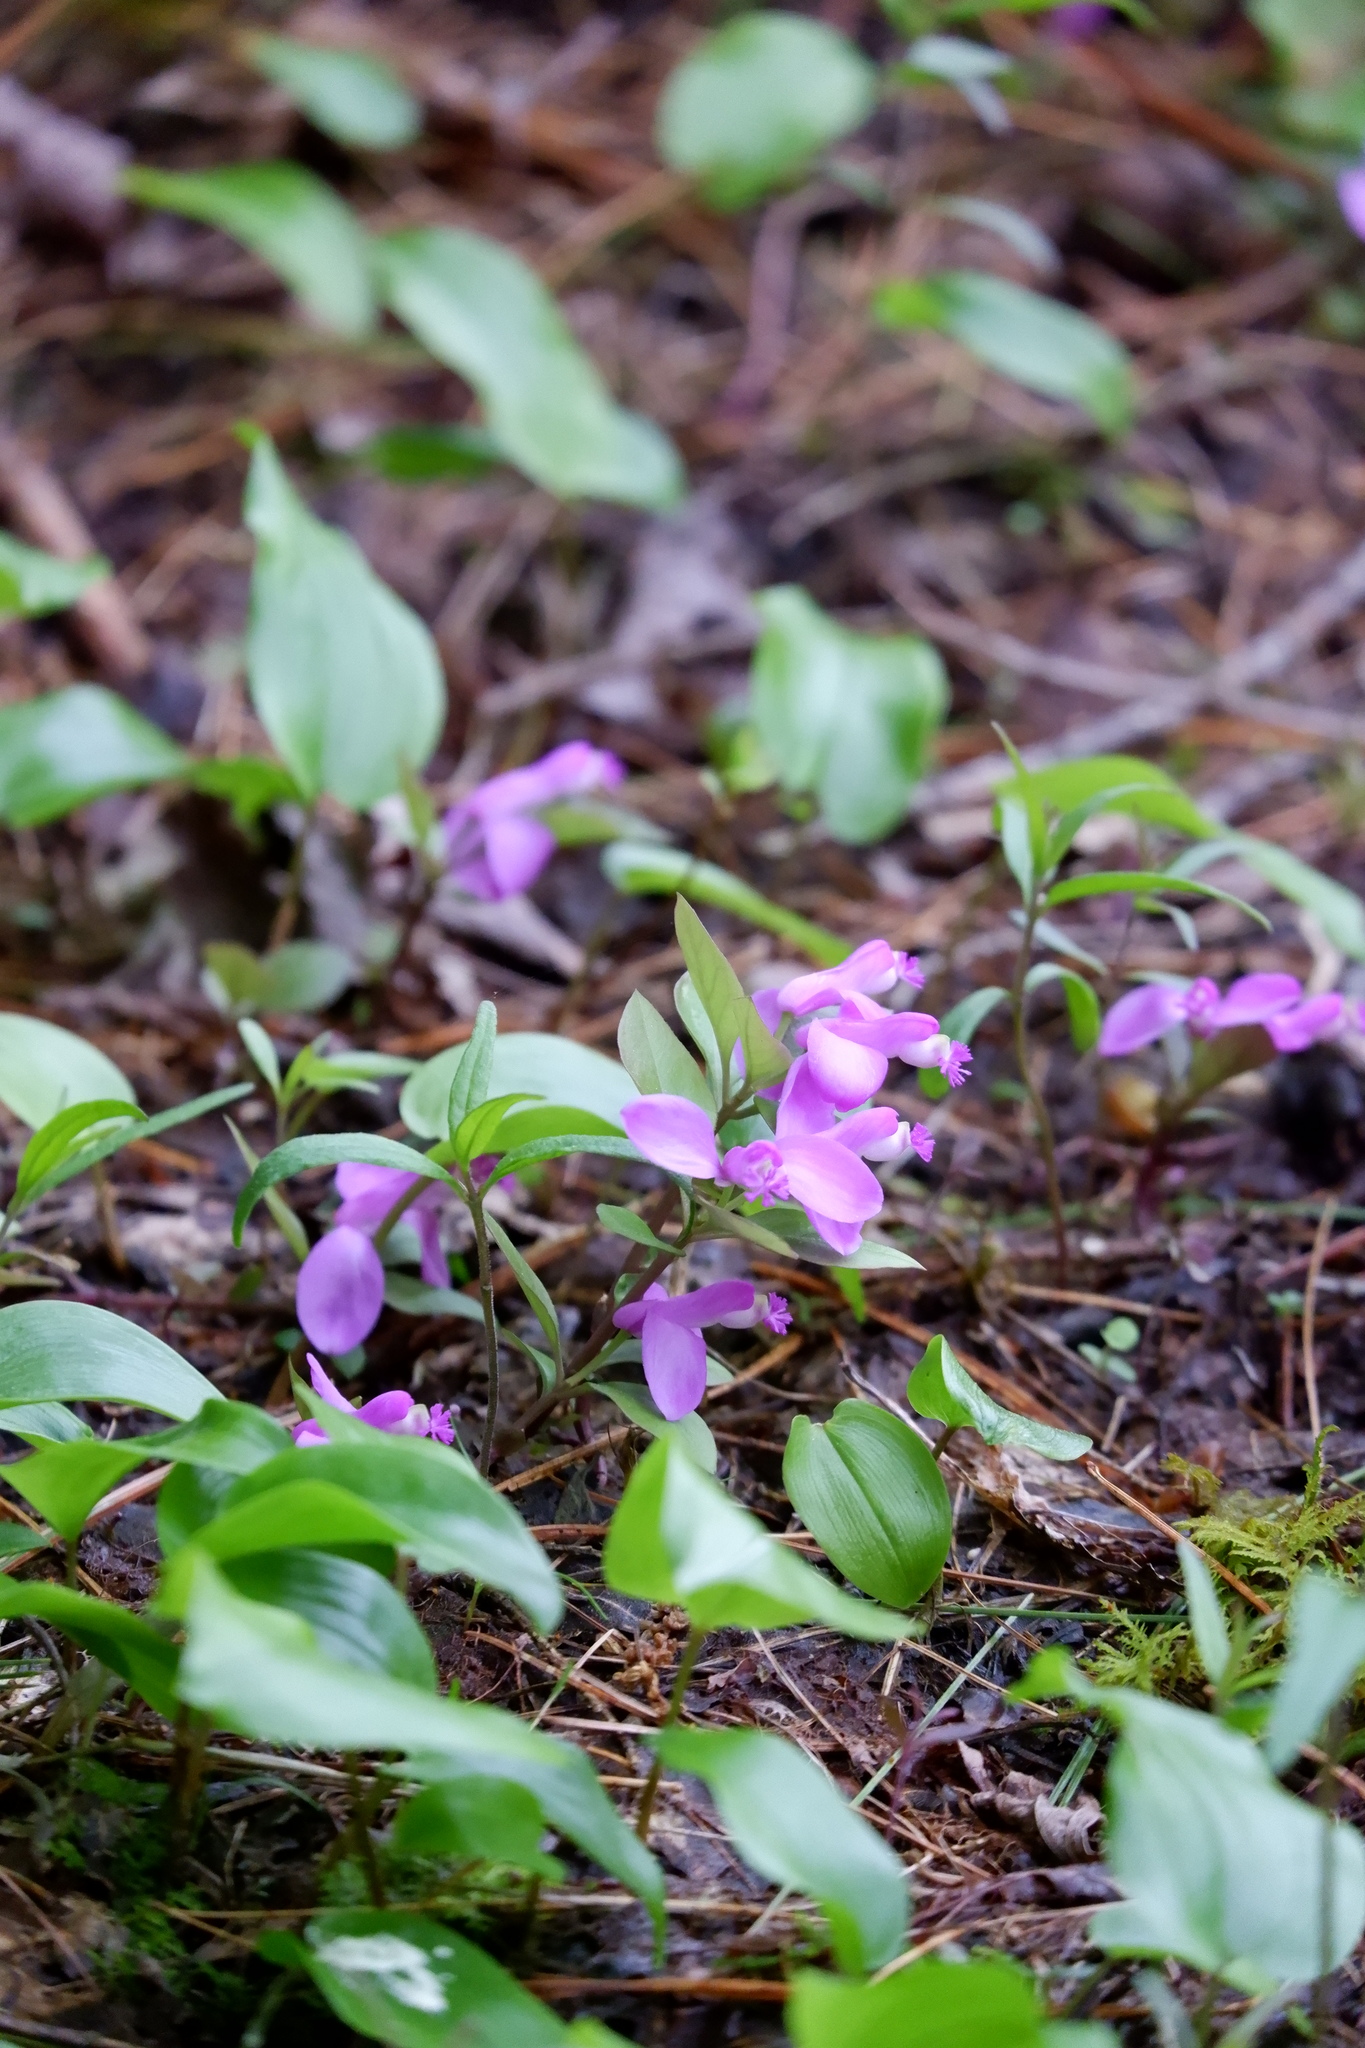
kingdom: Plantae
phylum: Tracheophyta
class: Magnoliopsida
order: Fabales
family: Polygalaceae
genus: Polygaloides
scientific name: Polygaloides paucifolia
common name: Bird-on-the-wing
